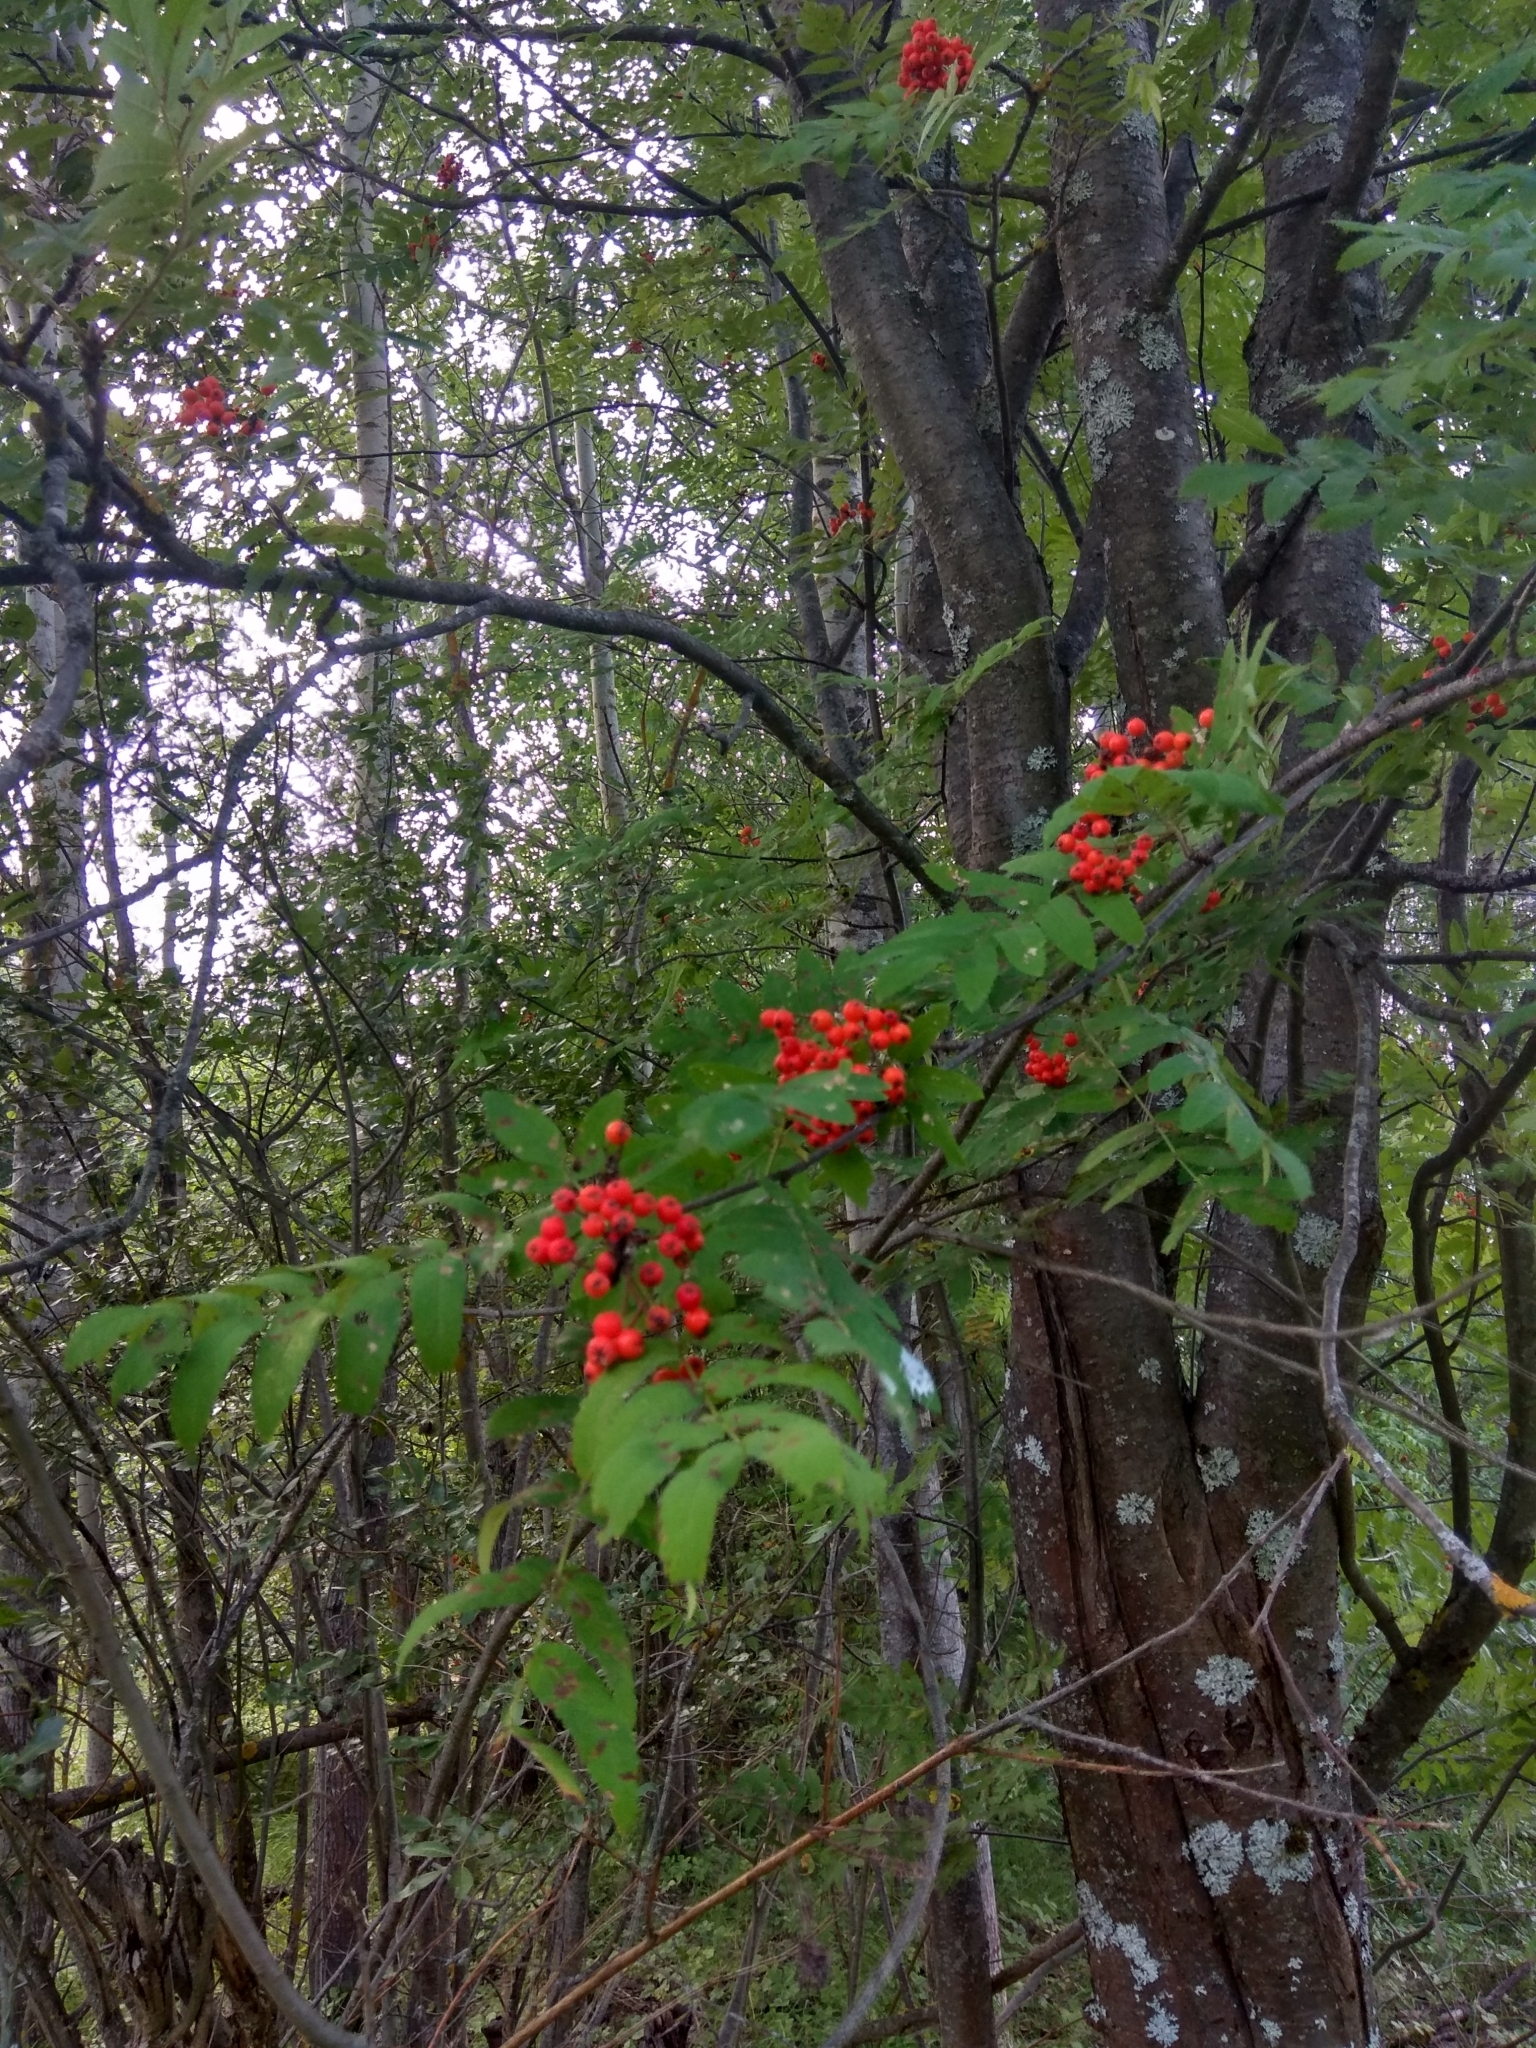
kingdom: Plantae
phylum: Tracheophyta
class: Magnoliopsida
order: Rosales
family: Rosaceae
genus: Sorbus
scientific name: Sorbus aucuparia
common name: Rowan
